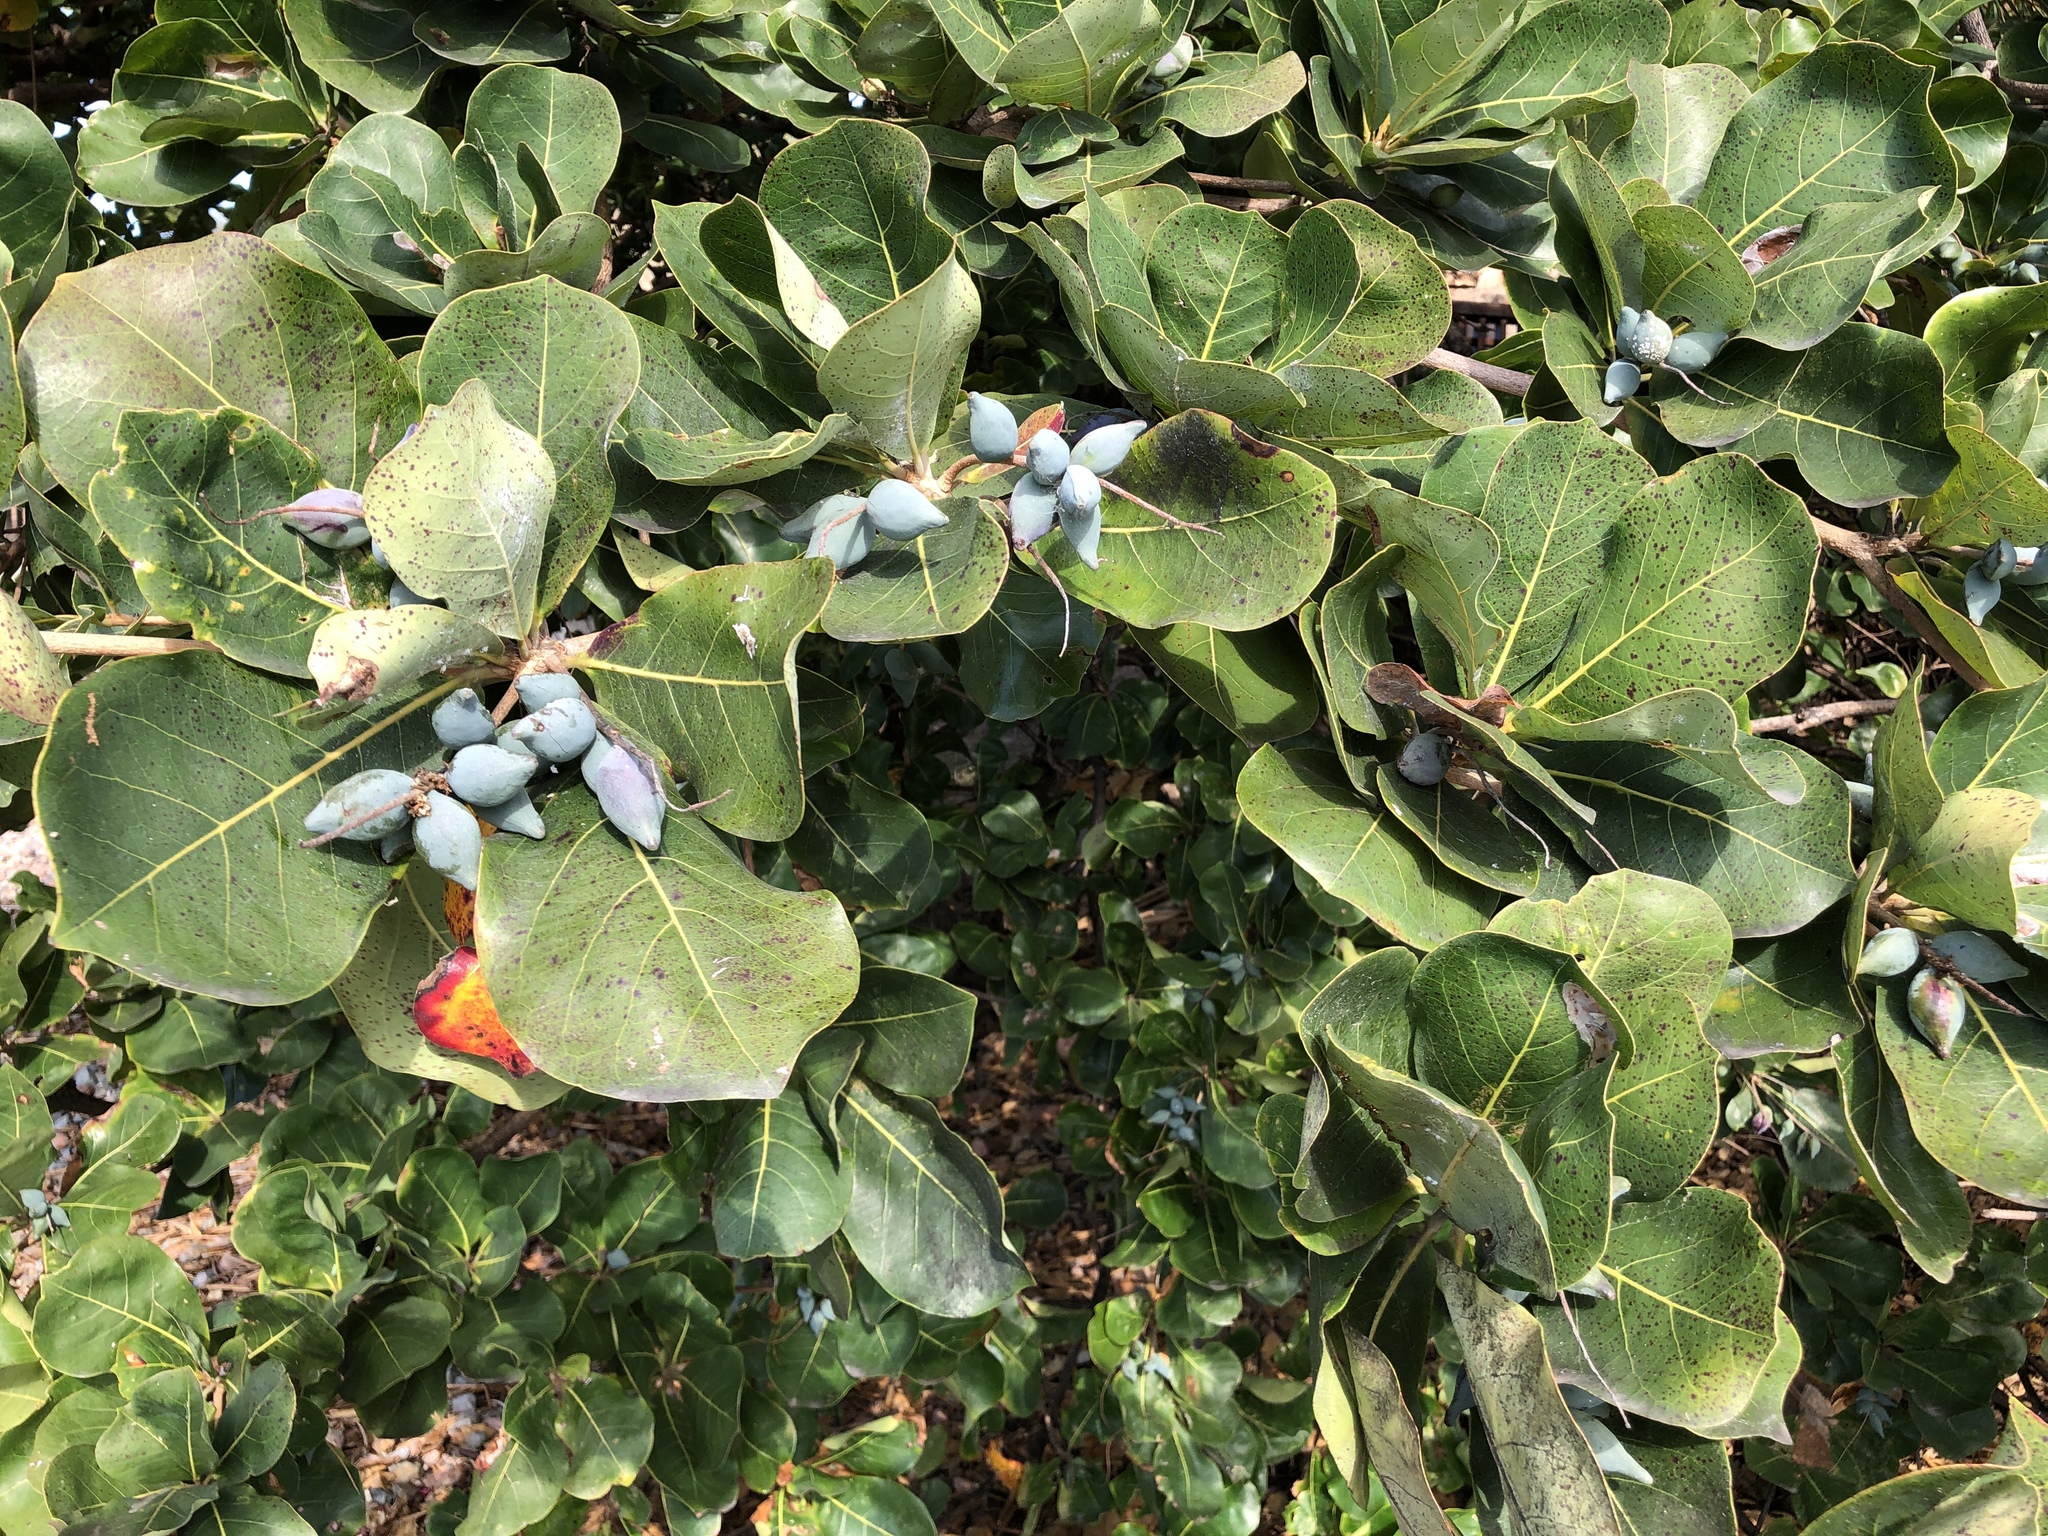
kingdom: Plantae
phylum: Tracheophyta
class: Magnoliopsida
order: Myrtales
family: Combretaceae
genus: Terminalia
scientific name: Terminalia arenicola
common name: Brown damson
